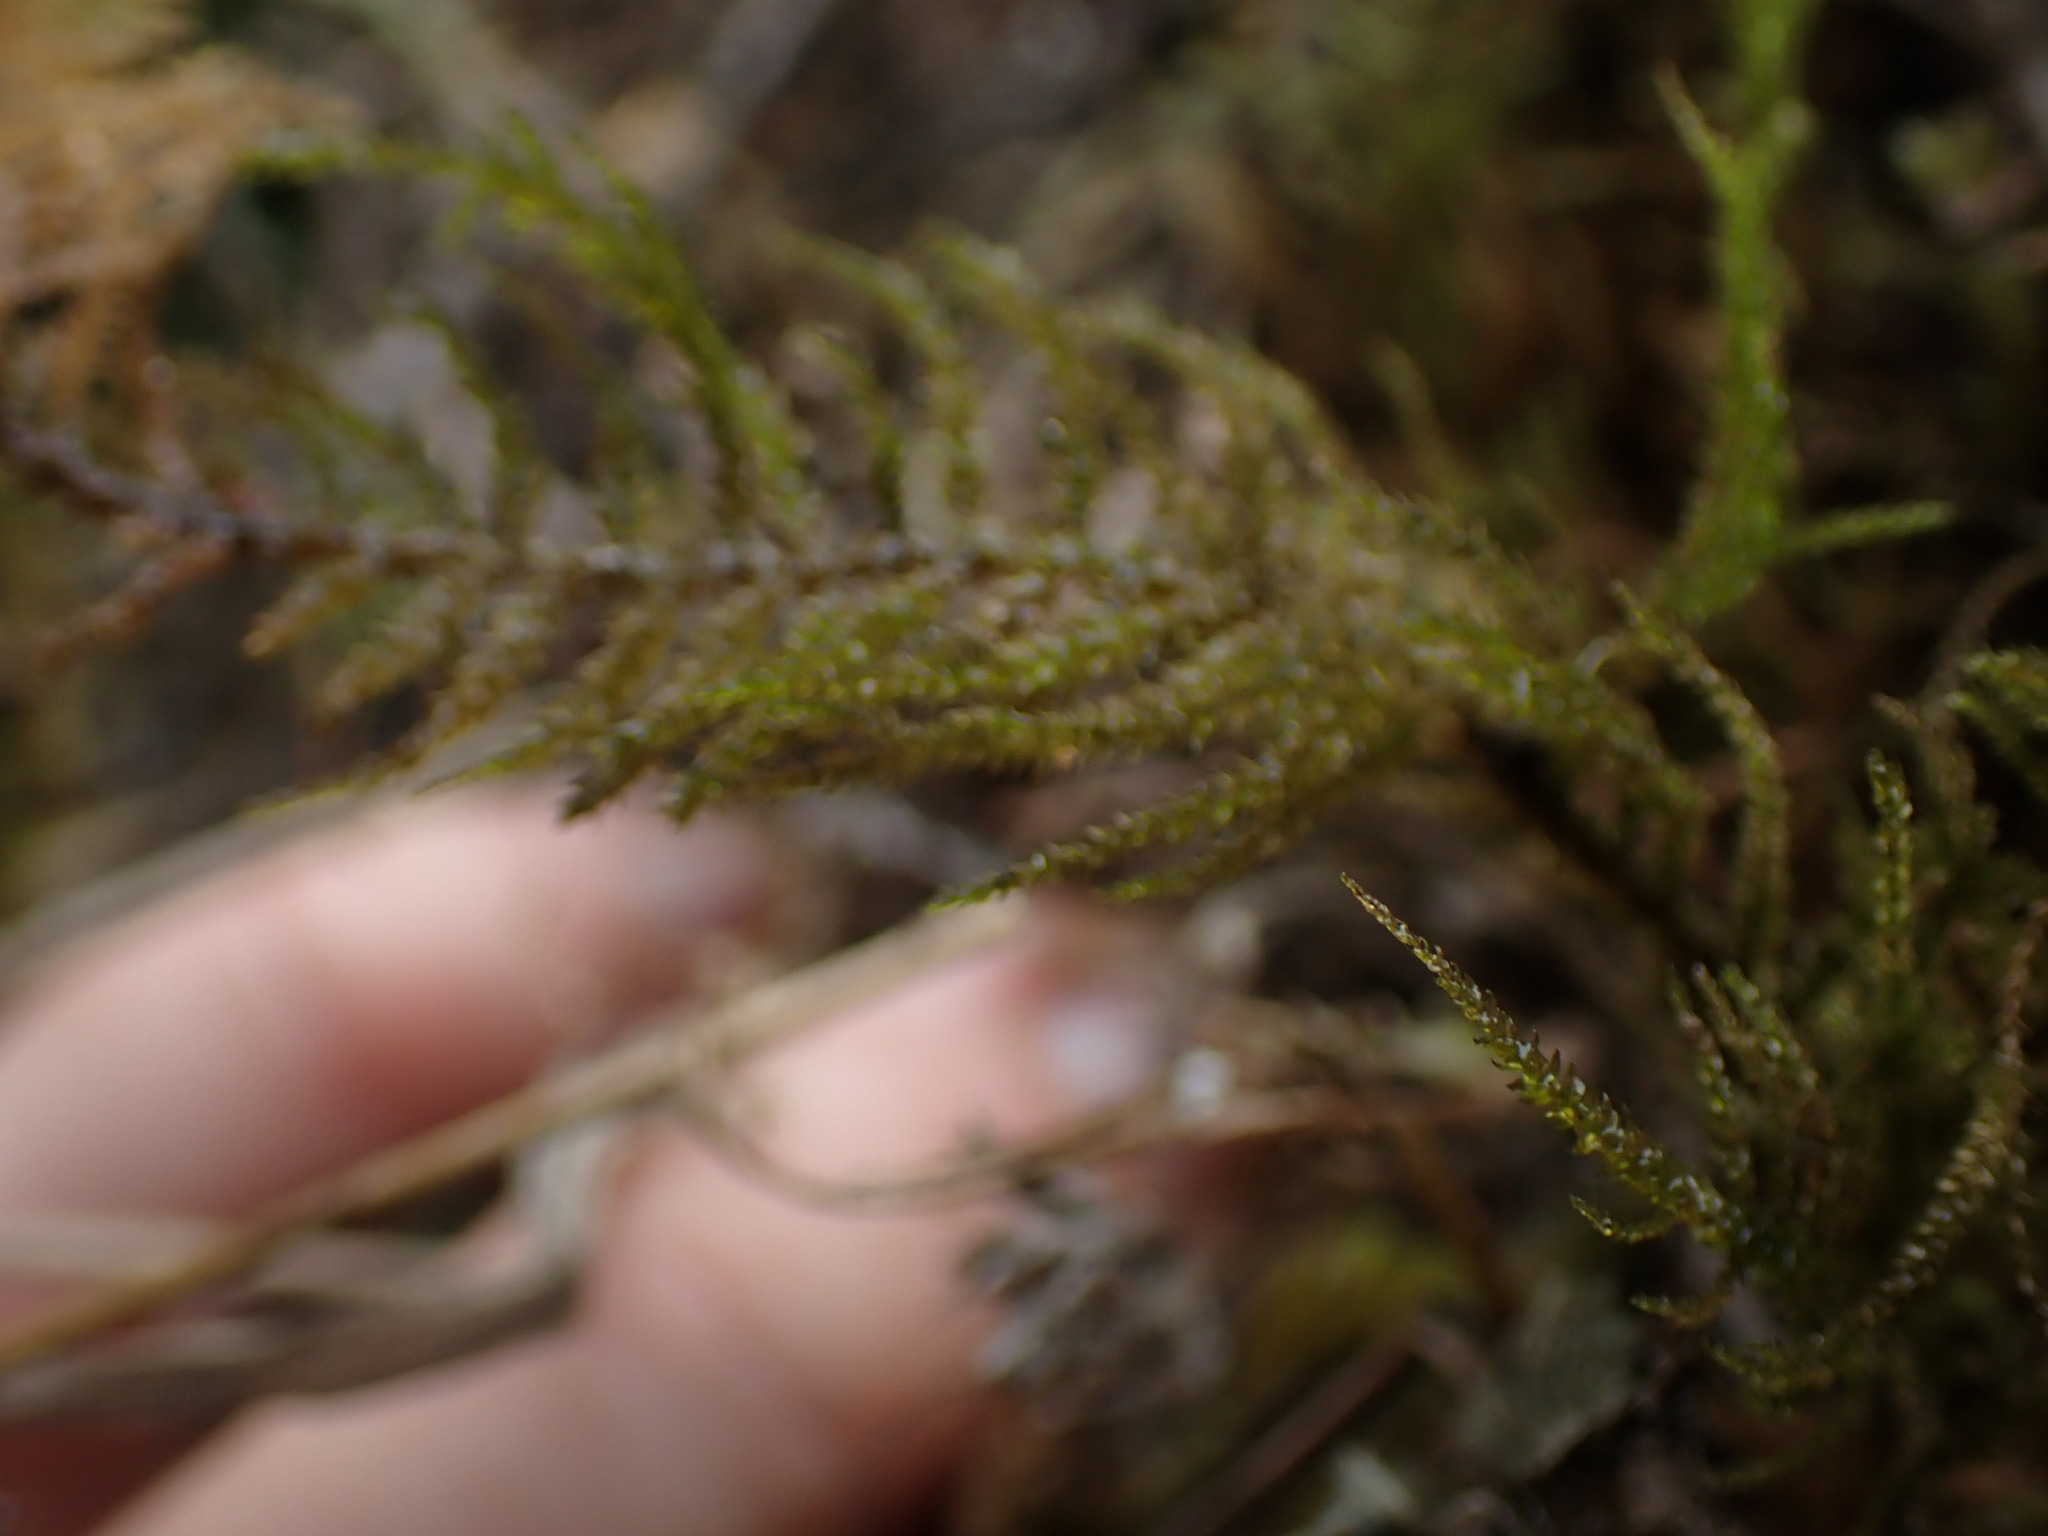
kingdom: Plantae
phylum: Bryophyta
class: Bryopsida
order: Hypnales
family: Brachytheciaceae
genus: Kindbergia
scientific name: Kindbergia oregana
